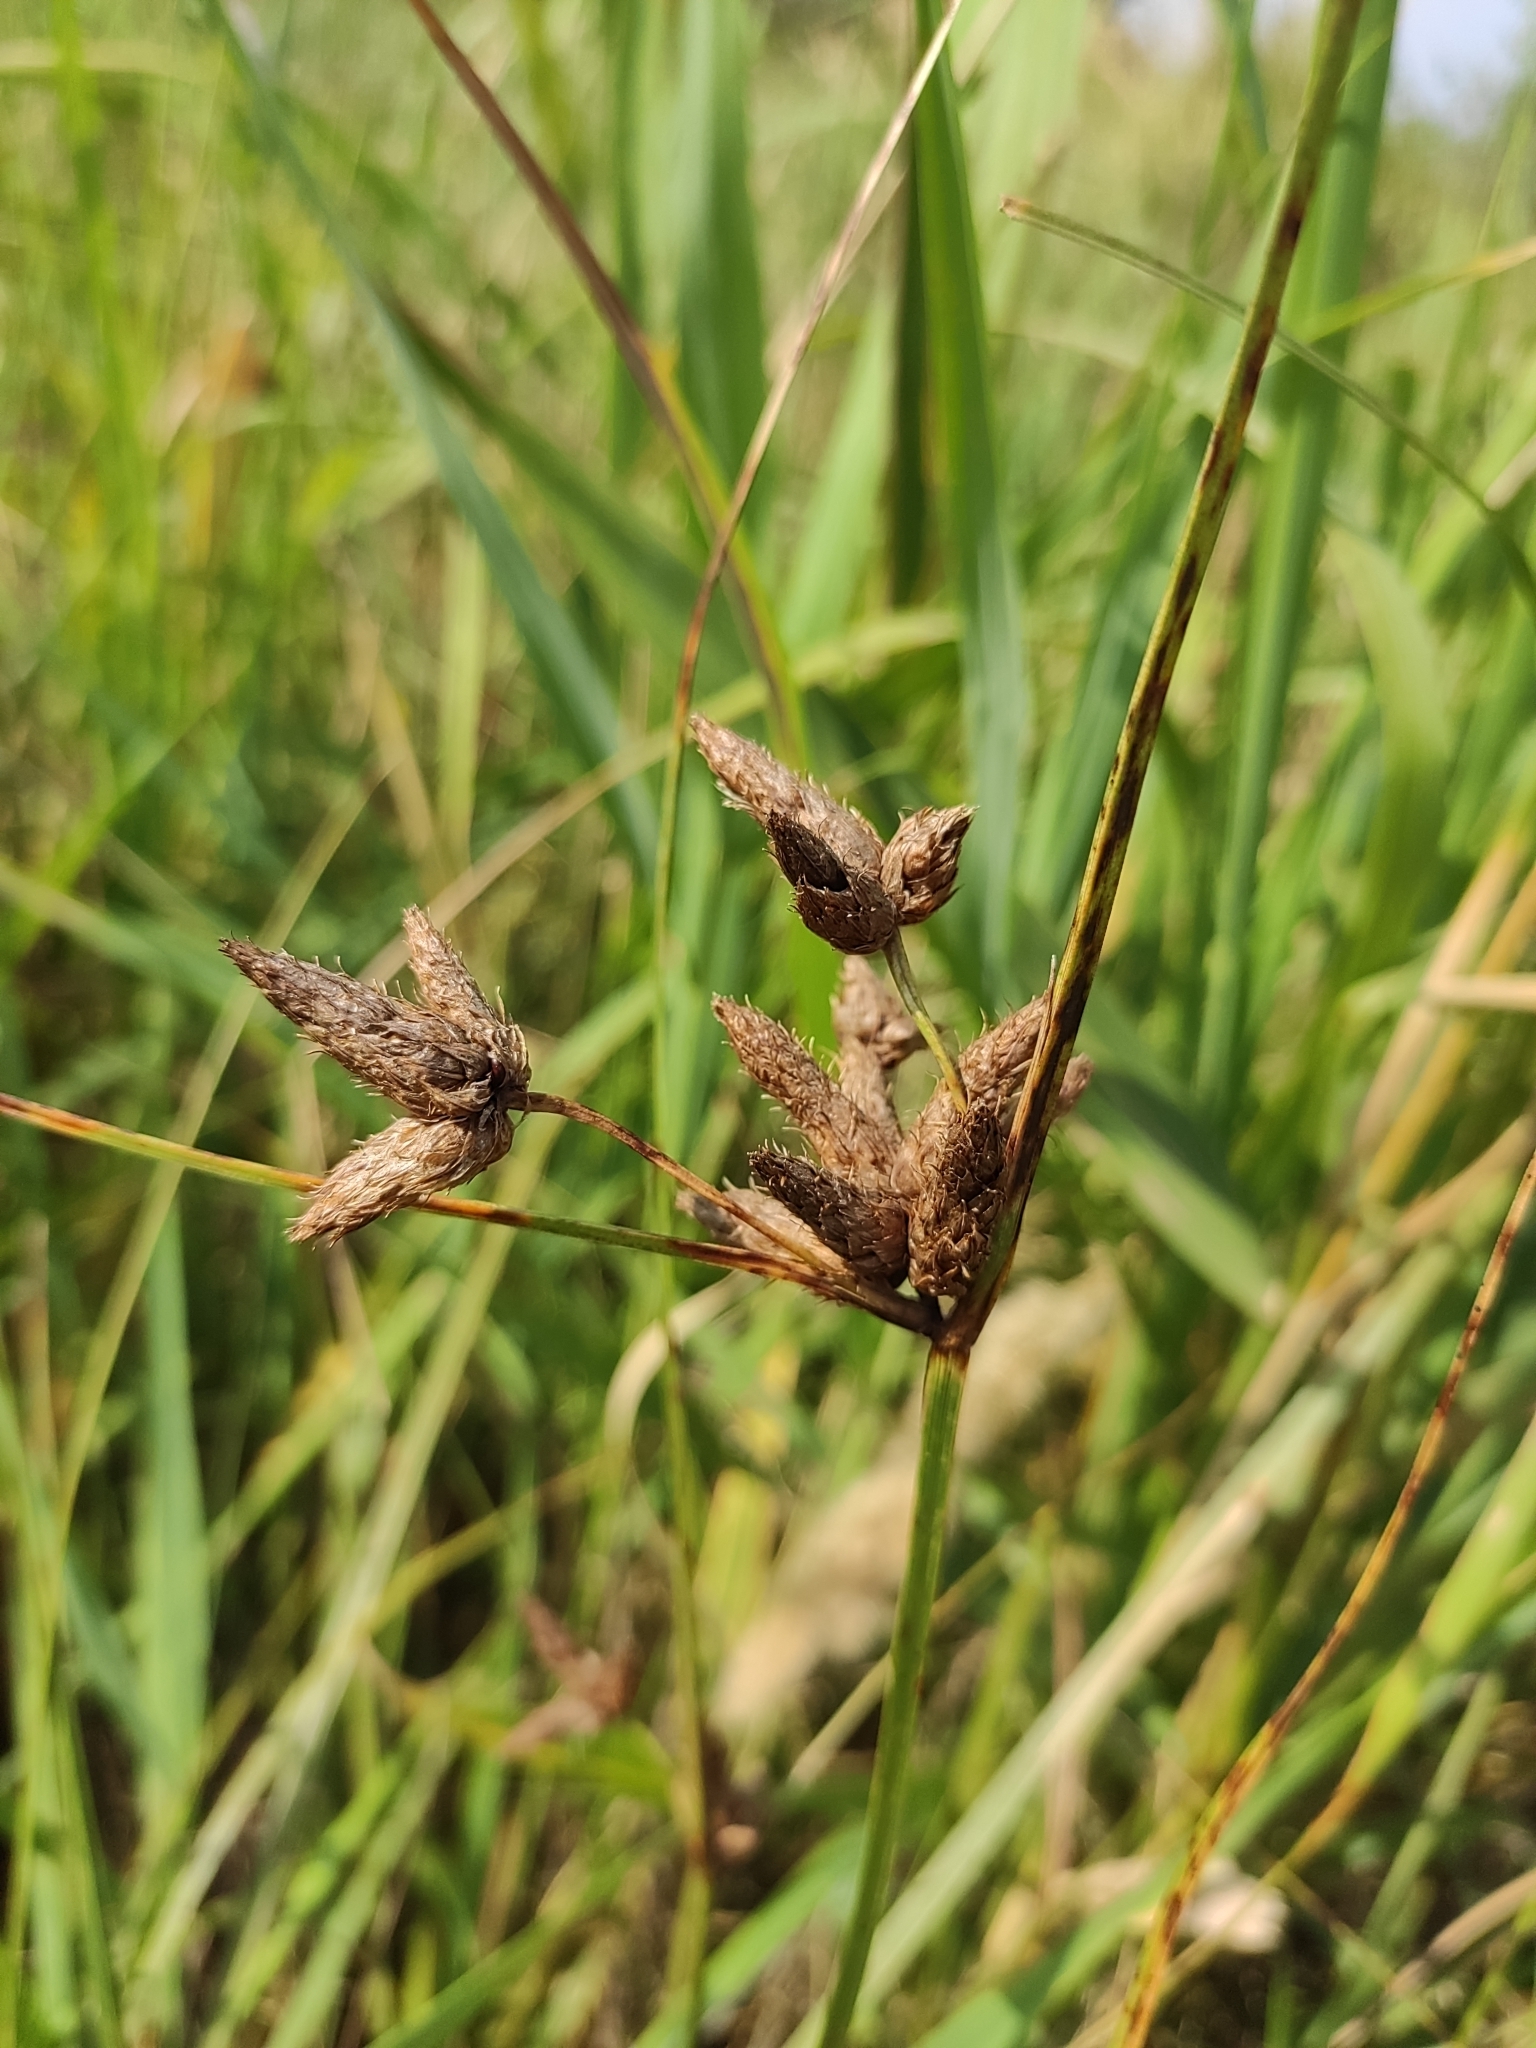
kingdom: Plantae
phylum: Tracheophyta
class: Liliopsida
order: Poales
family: Cyperaceae
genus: Bolboschoenus
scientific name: Bolboschoenus maritimus
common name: Sea club-rush
